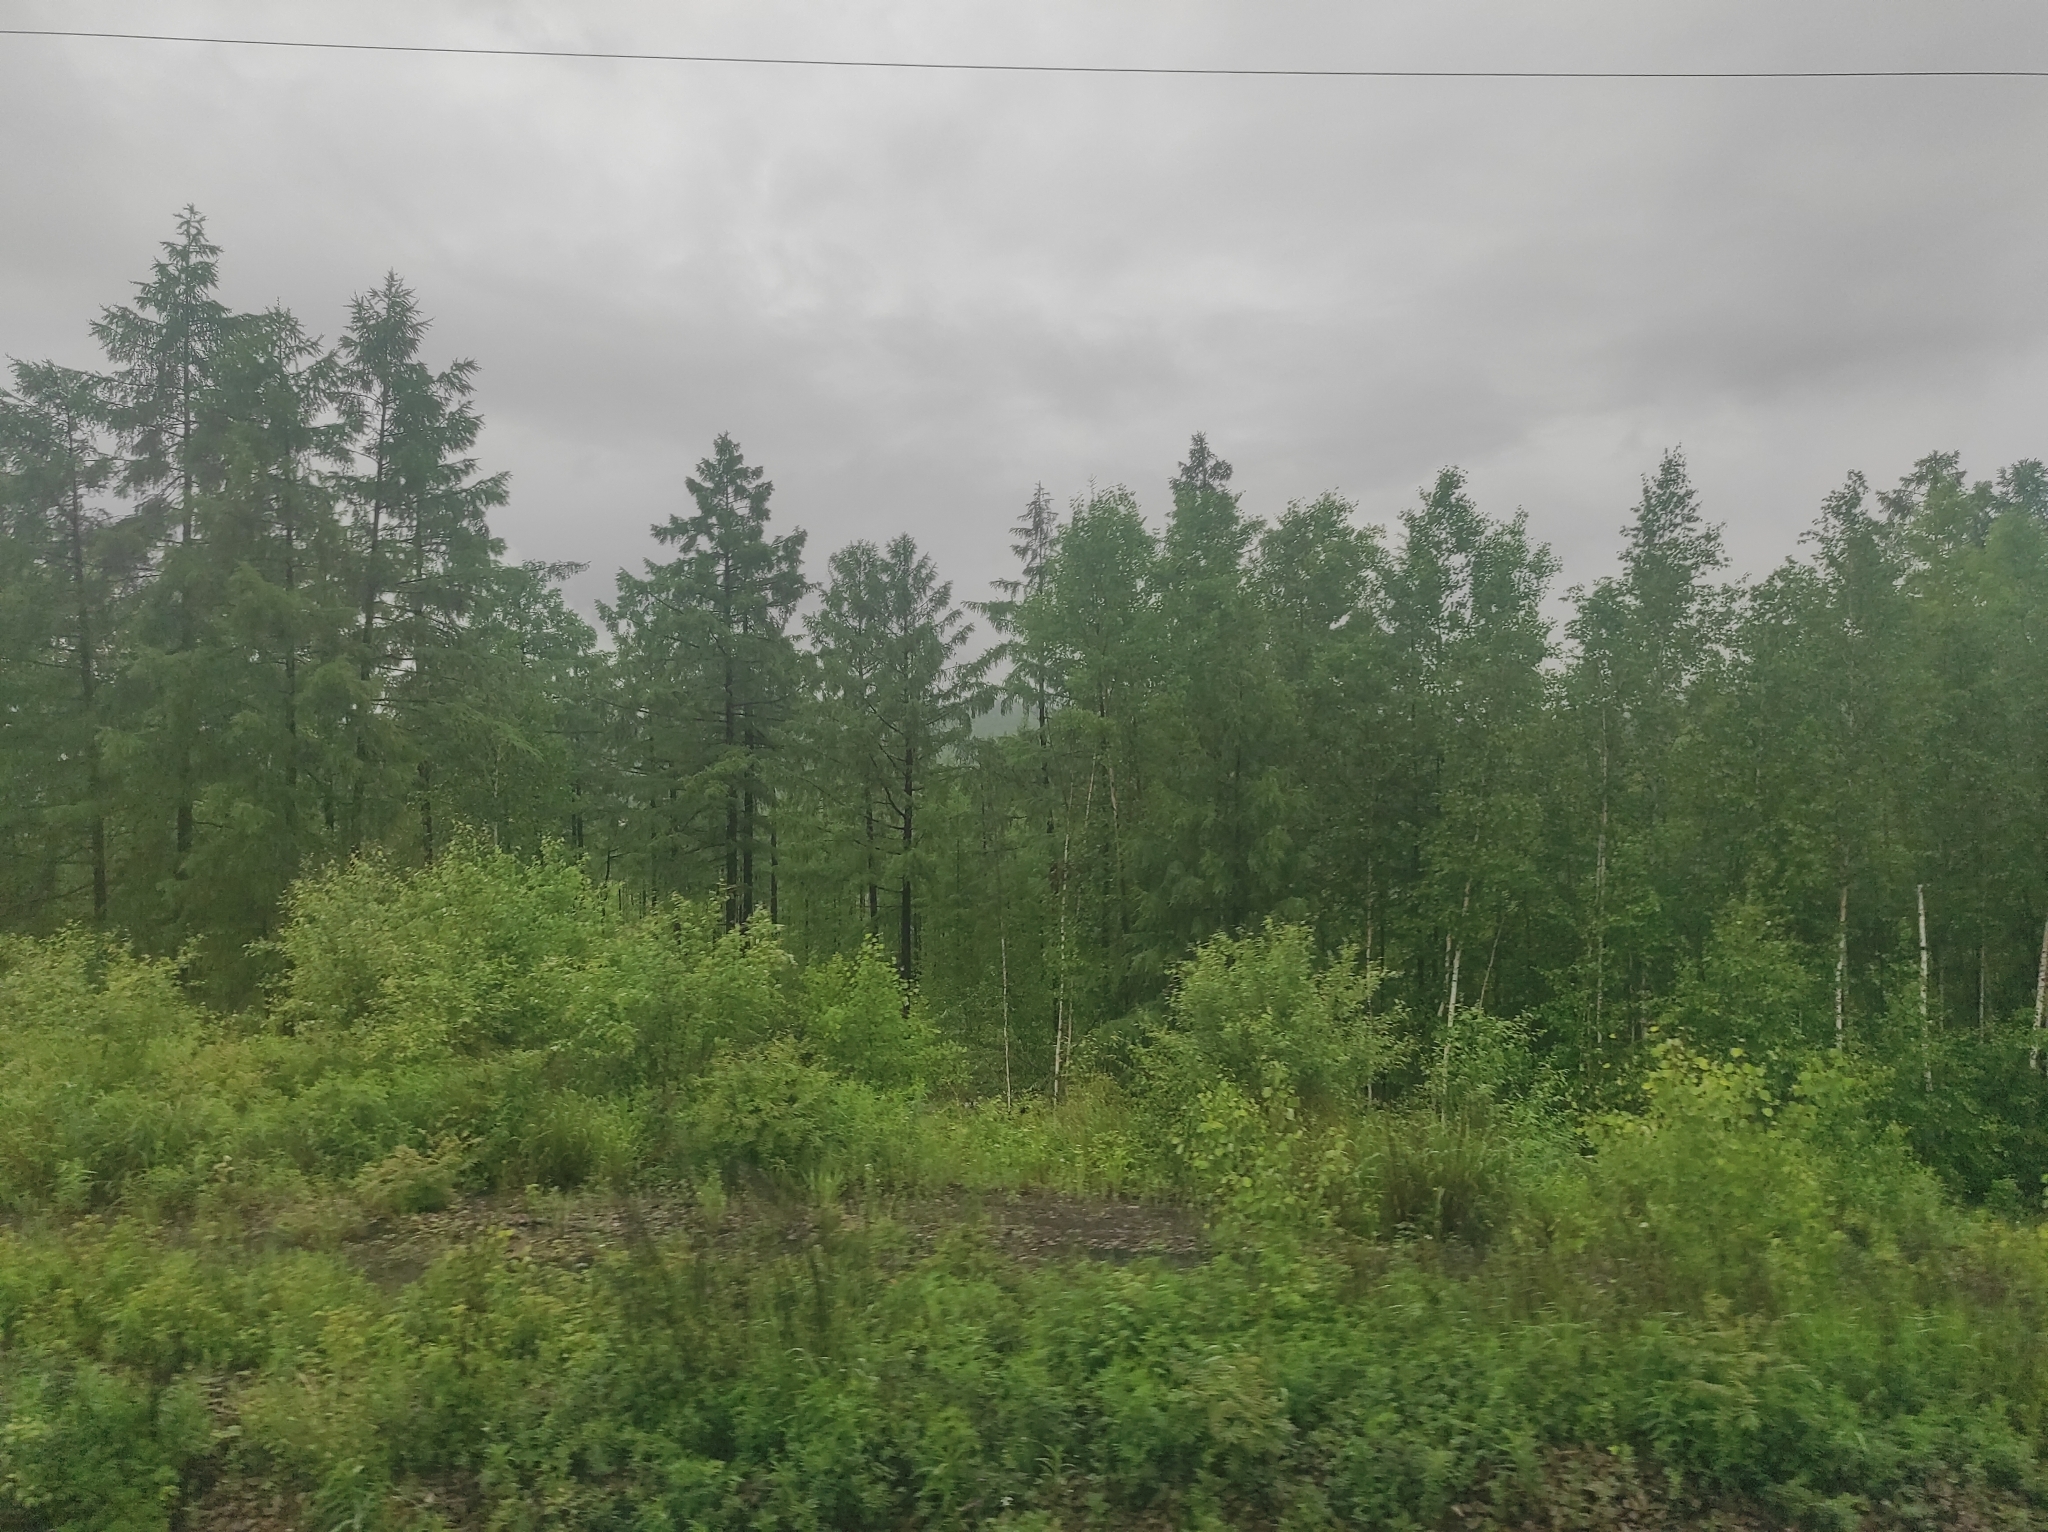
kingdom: Plantae
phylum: Tracheophyta
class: Pinopsida
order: Pinales
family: Pinaceae
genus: Larix
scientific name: Larix gmelinii
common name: Dahurian larch
